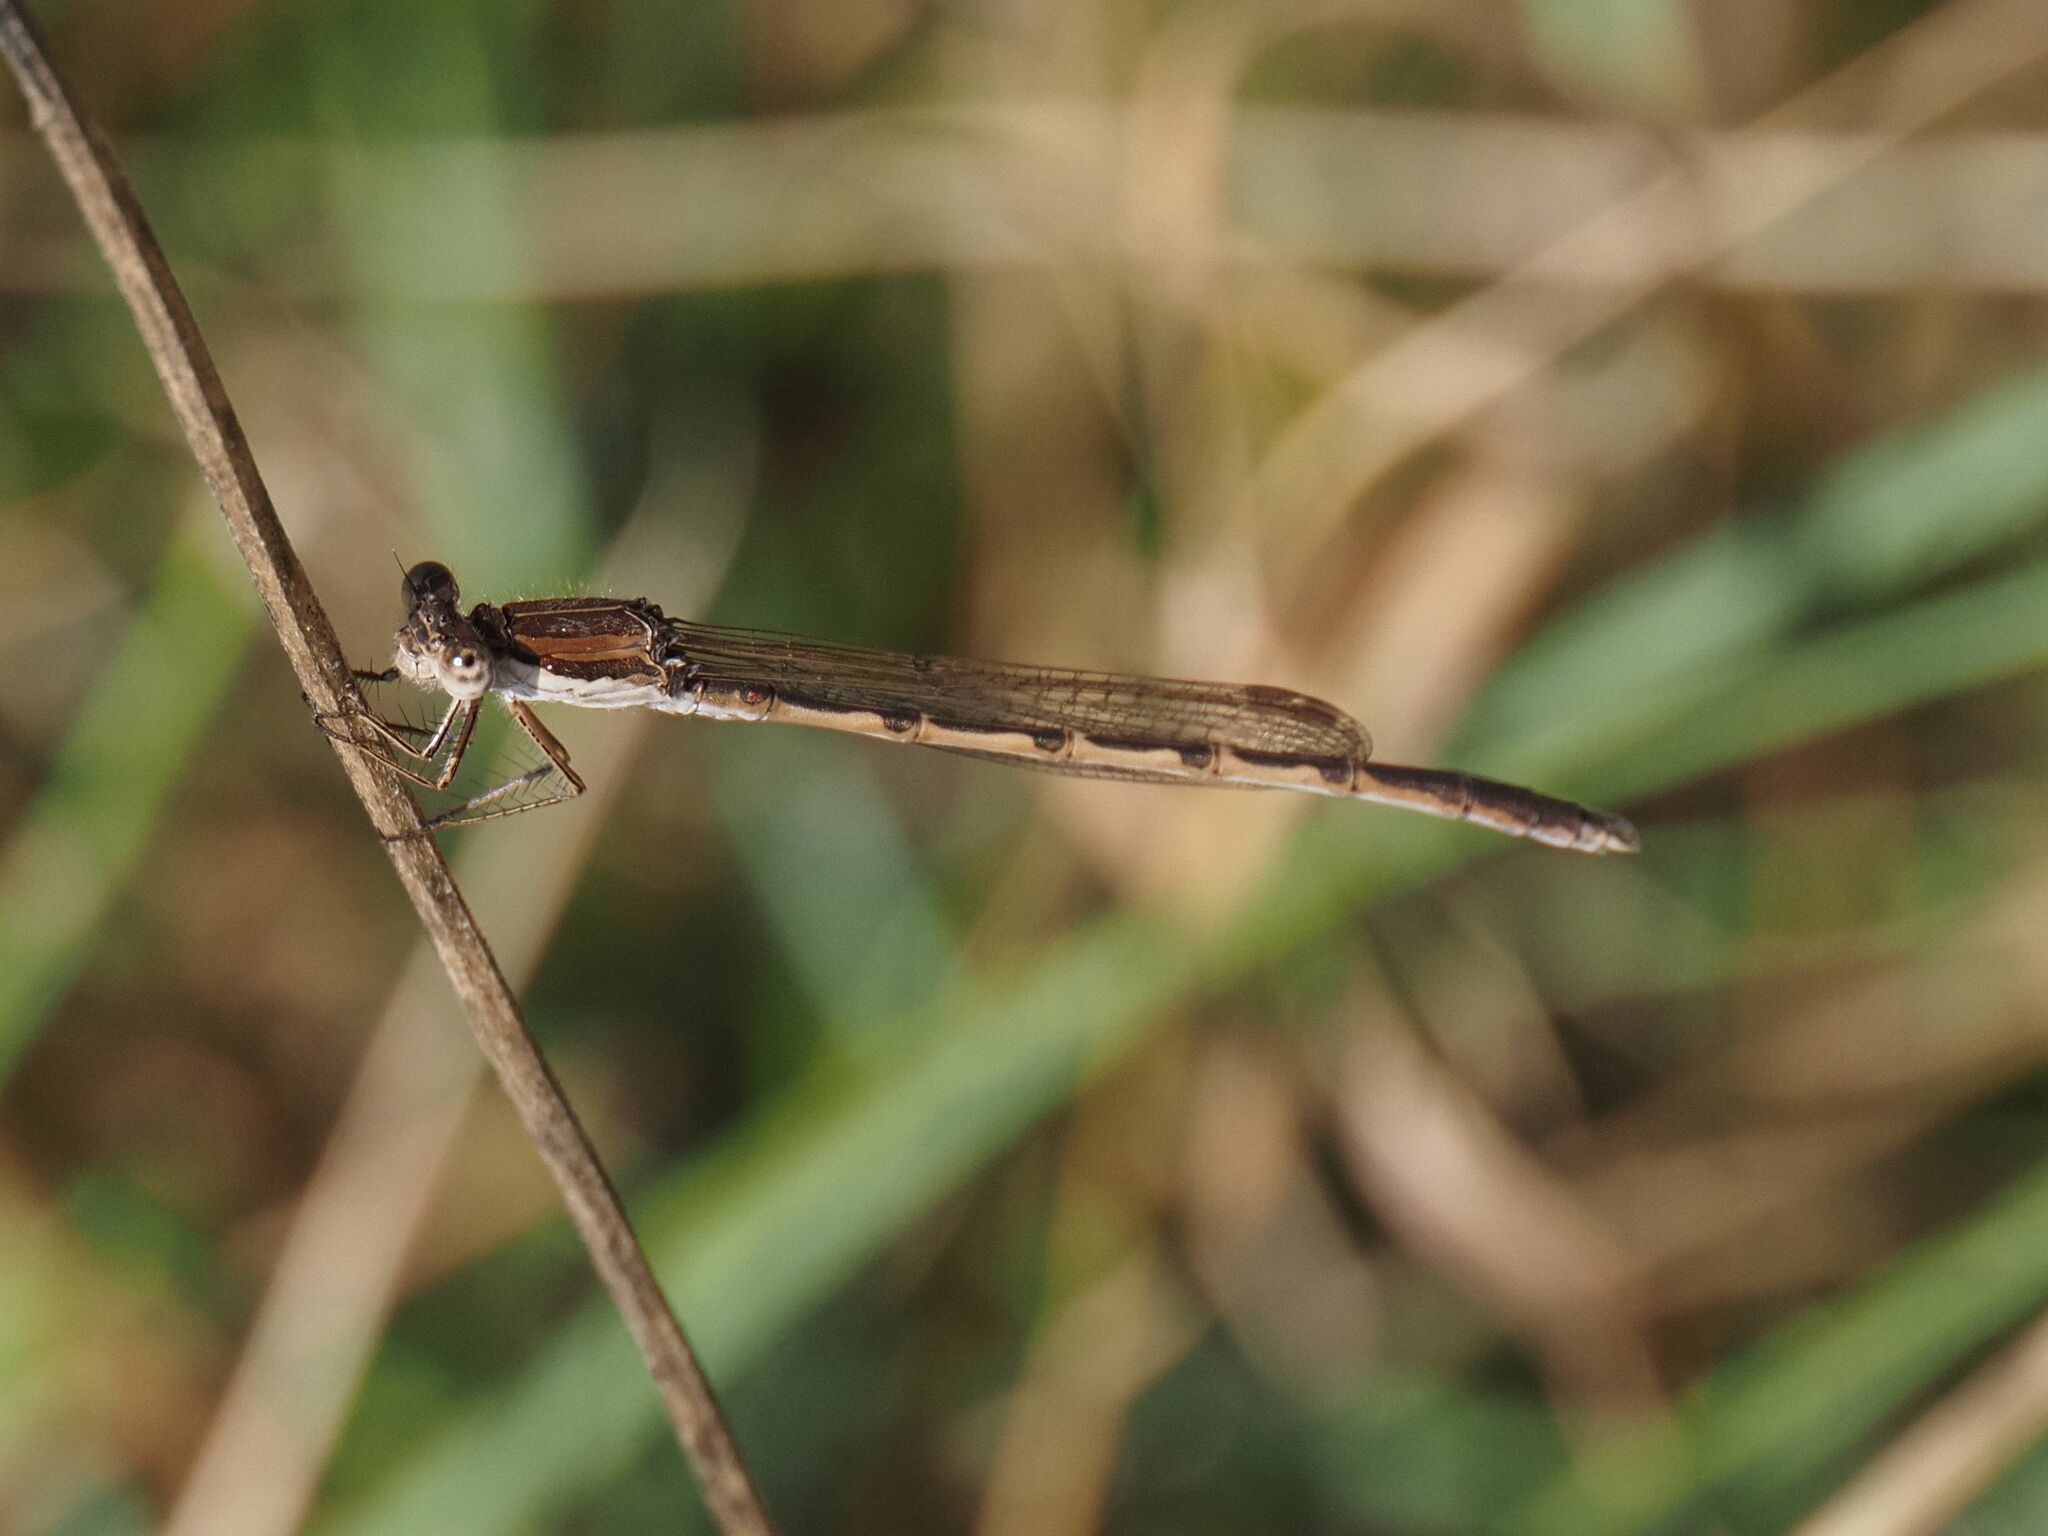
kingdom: Animalia
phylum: Arthropoda
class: Insecta
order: Odonata
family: Lestidae
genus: Sympecma
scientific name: Sympecma fusca
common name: Common winter damsel
